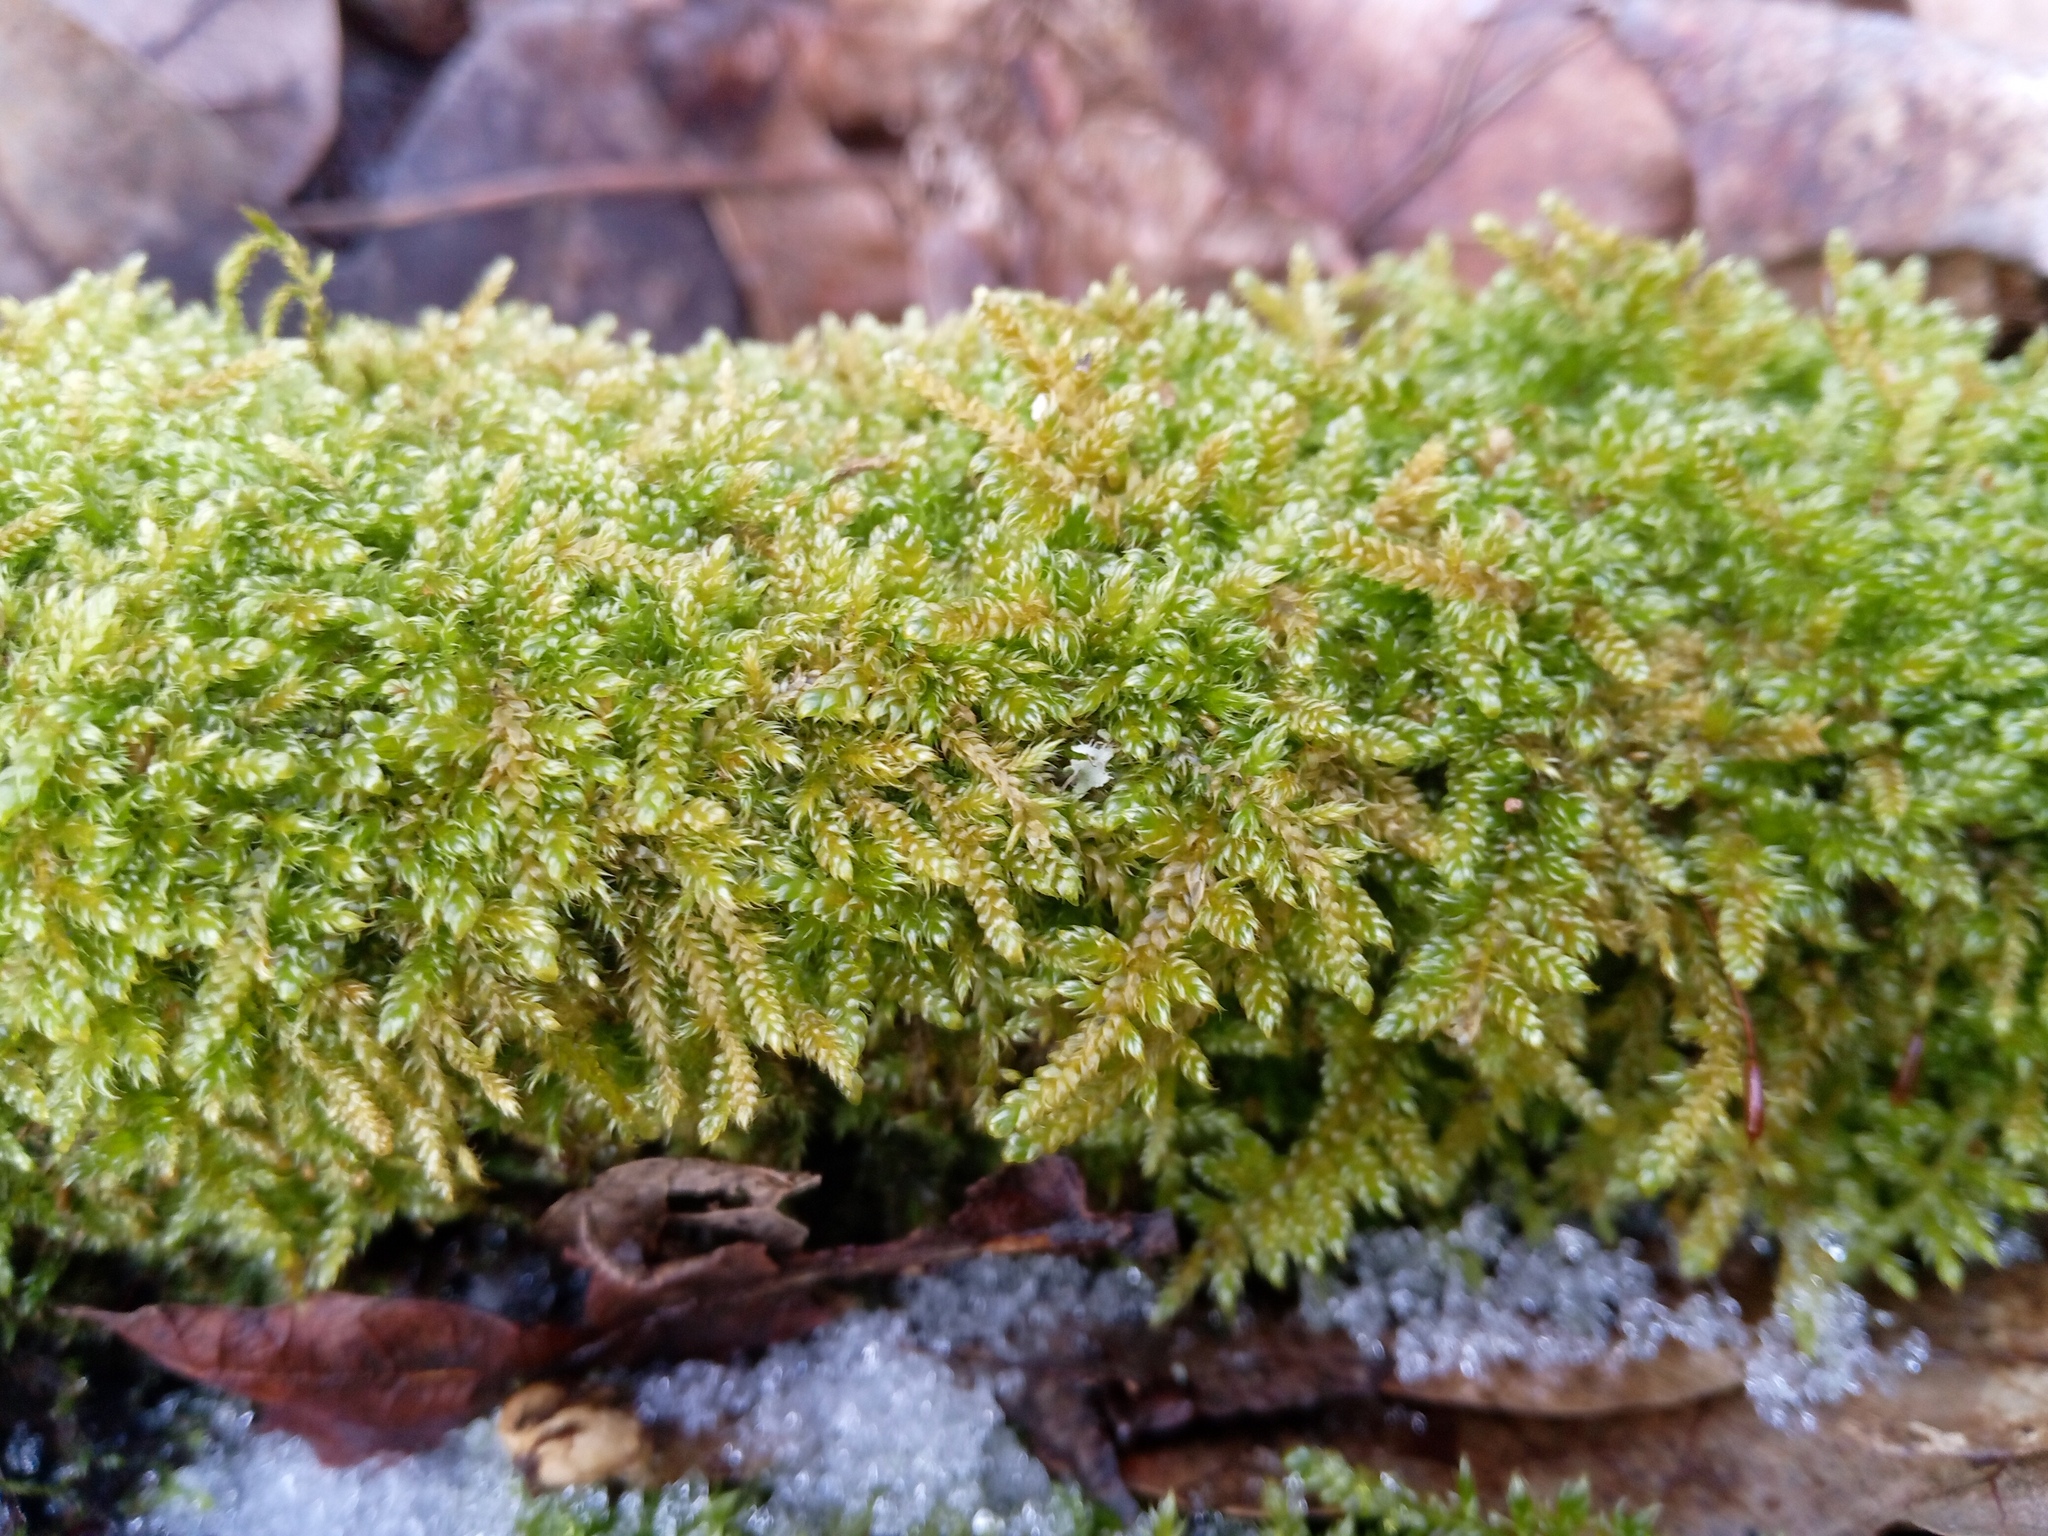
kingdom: Plantae
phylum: Bryophyta
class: Bryopsida
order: Hypnales
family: Hypnaceae
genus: Hypnum
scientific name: Hypnum cupressiforme
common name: Cypress-leaved plait-moss
